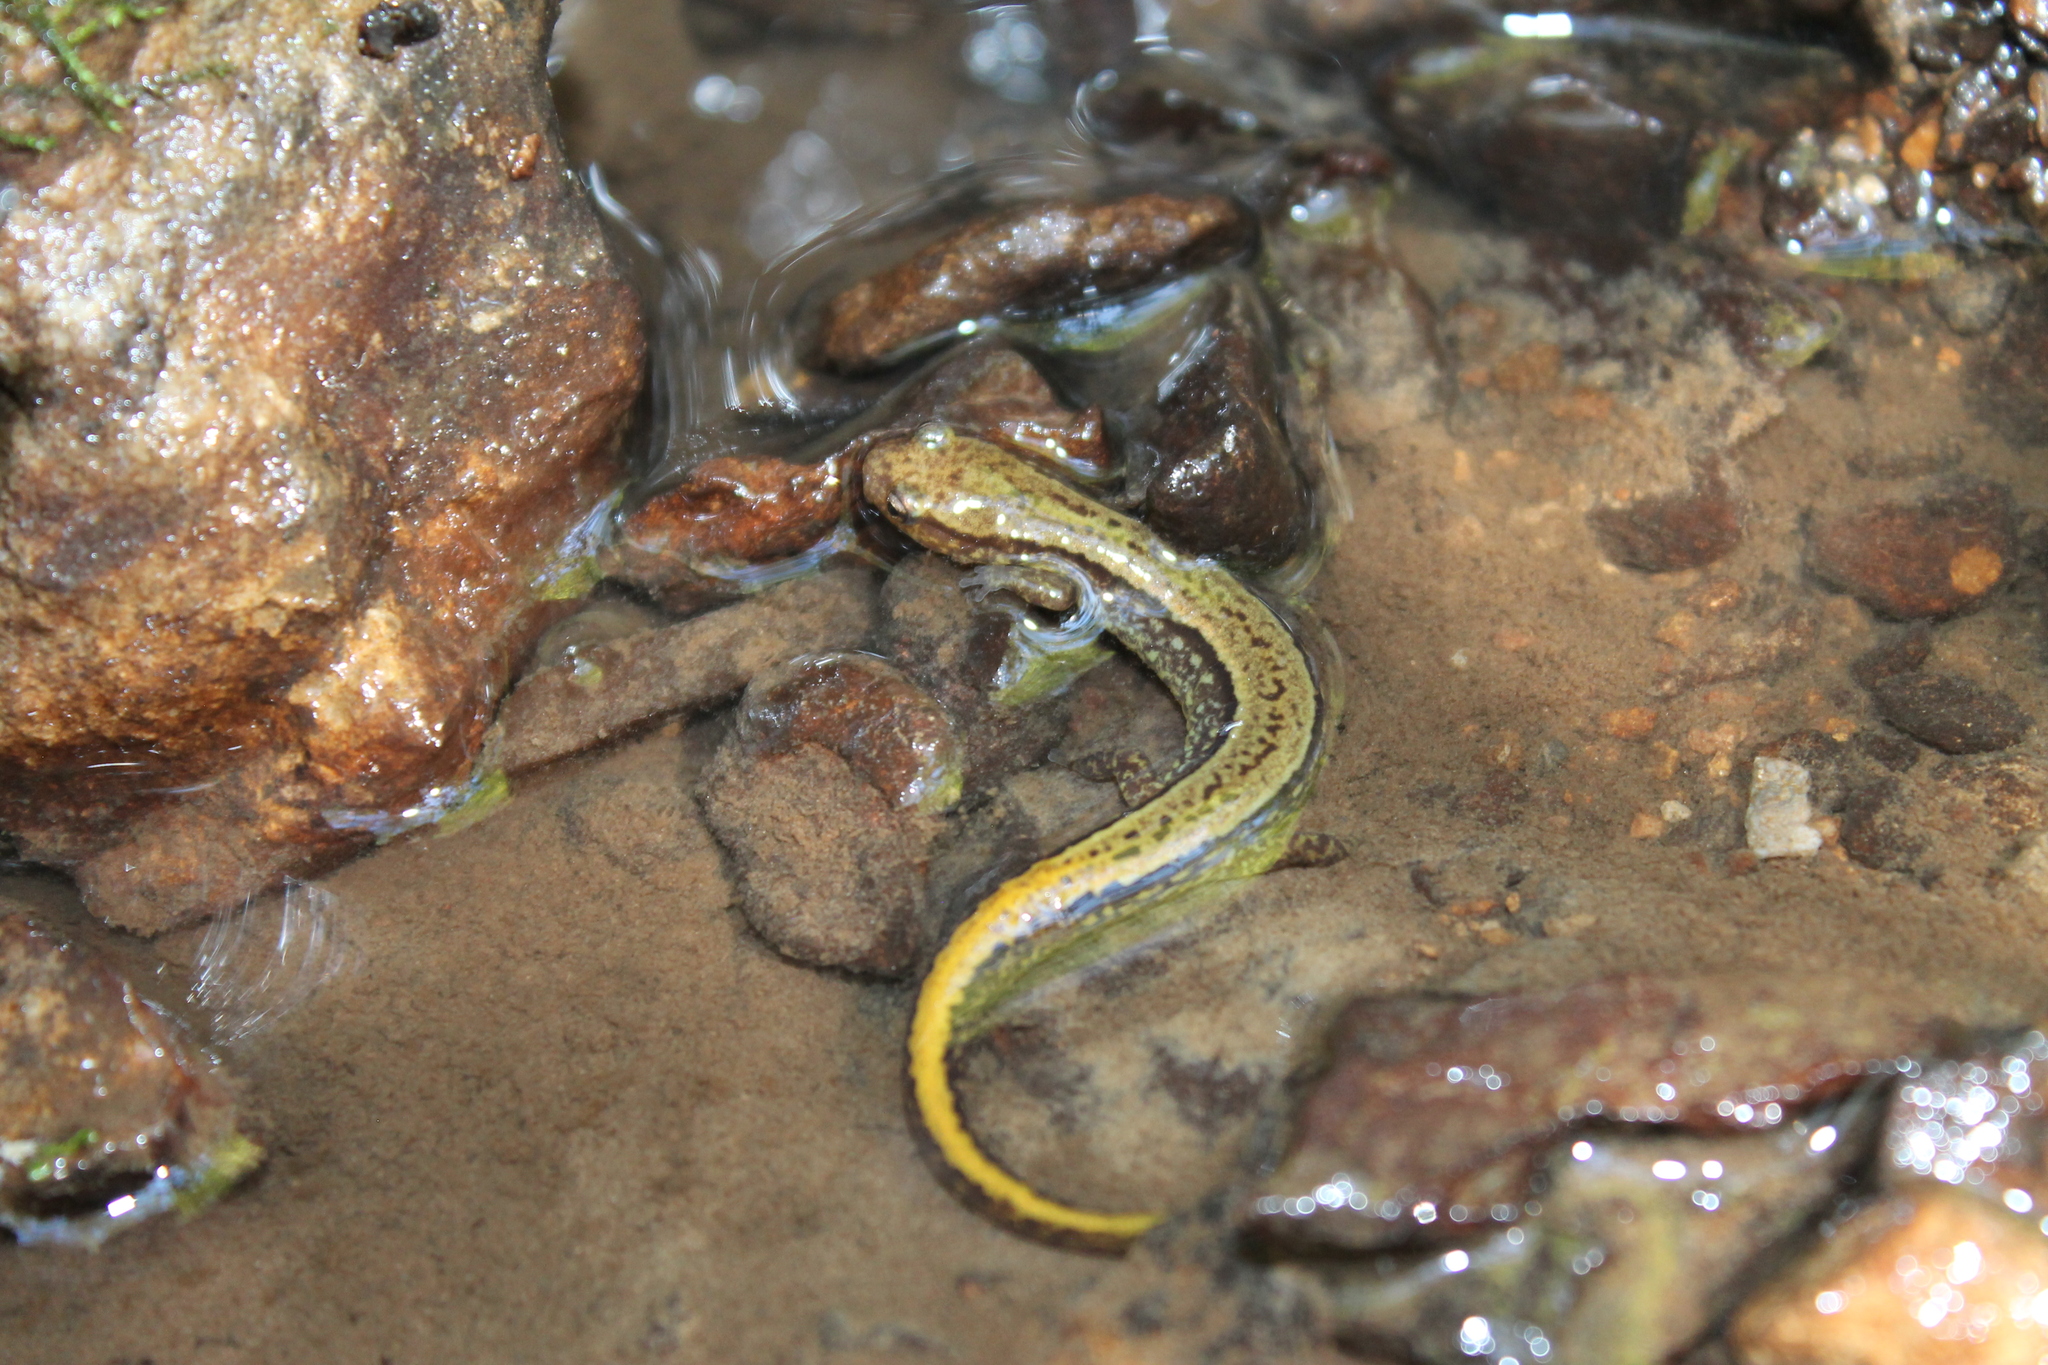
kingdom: Animalia
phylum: Chordata
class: Amphibia
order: Caudata
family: Plethodontidae
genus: Eurycea
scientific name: Eurycea cirrigera
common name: Southern two-lined salamander
